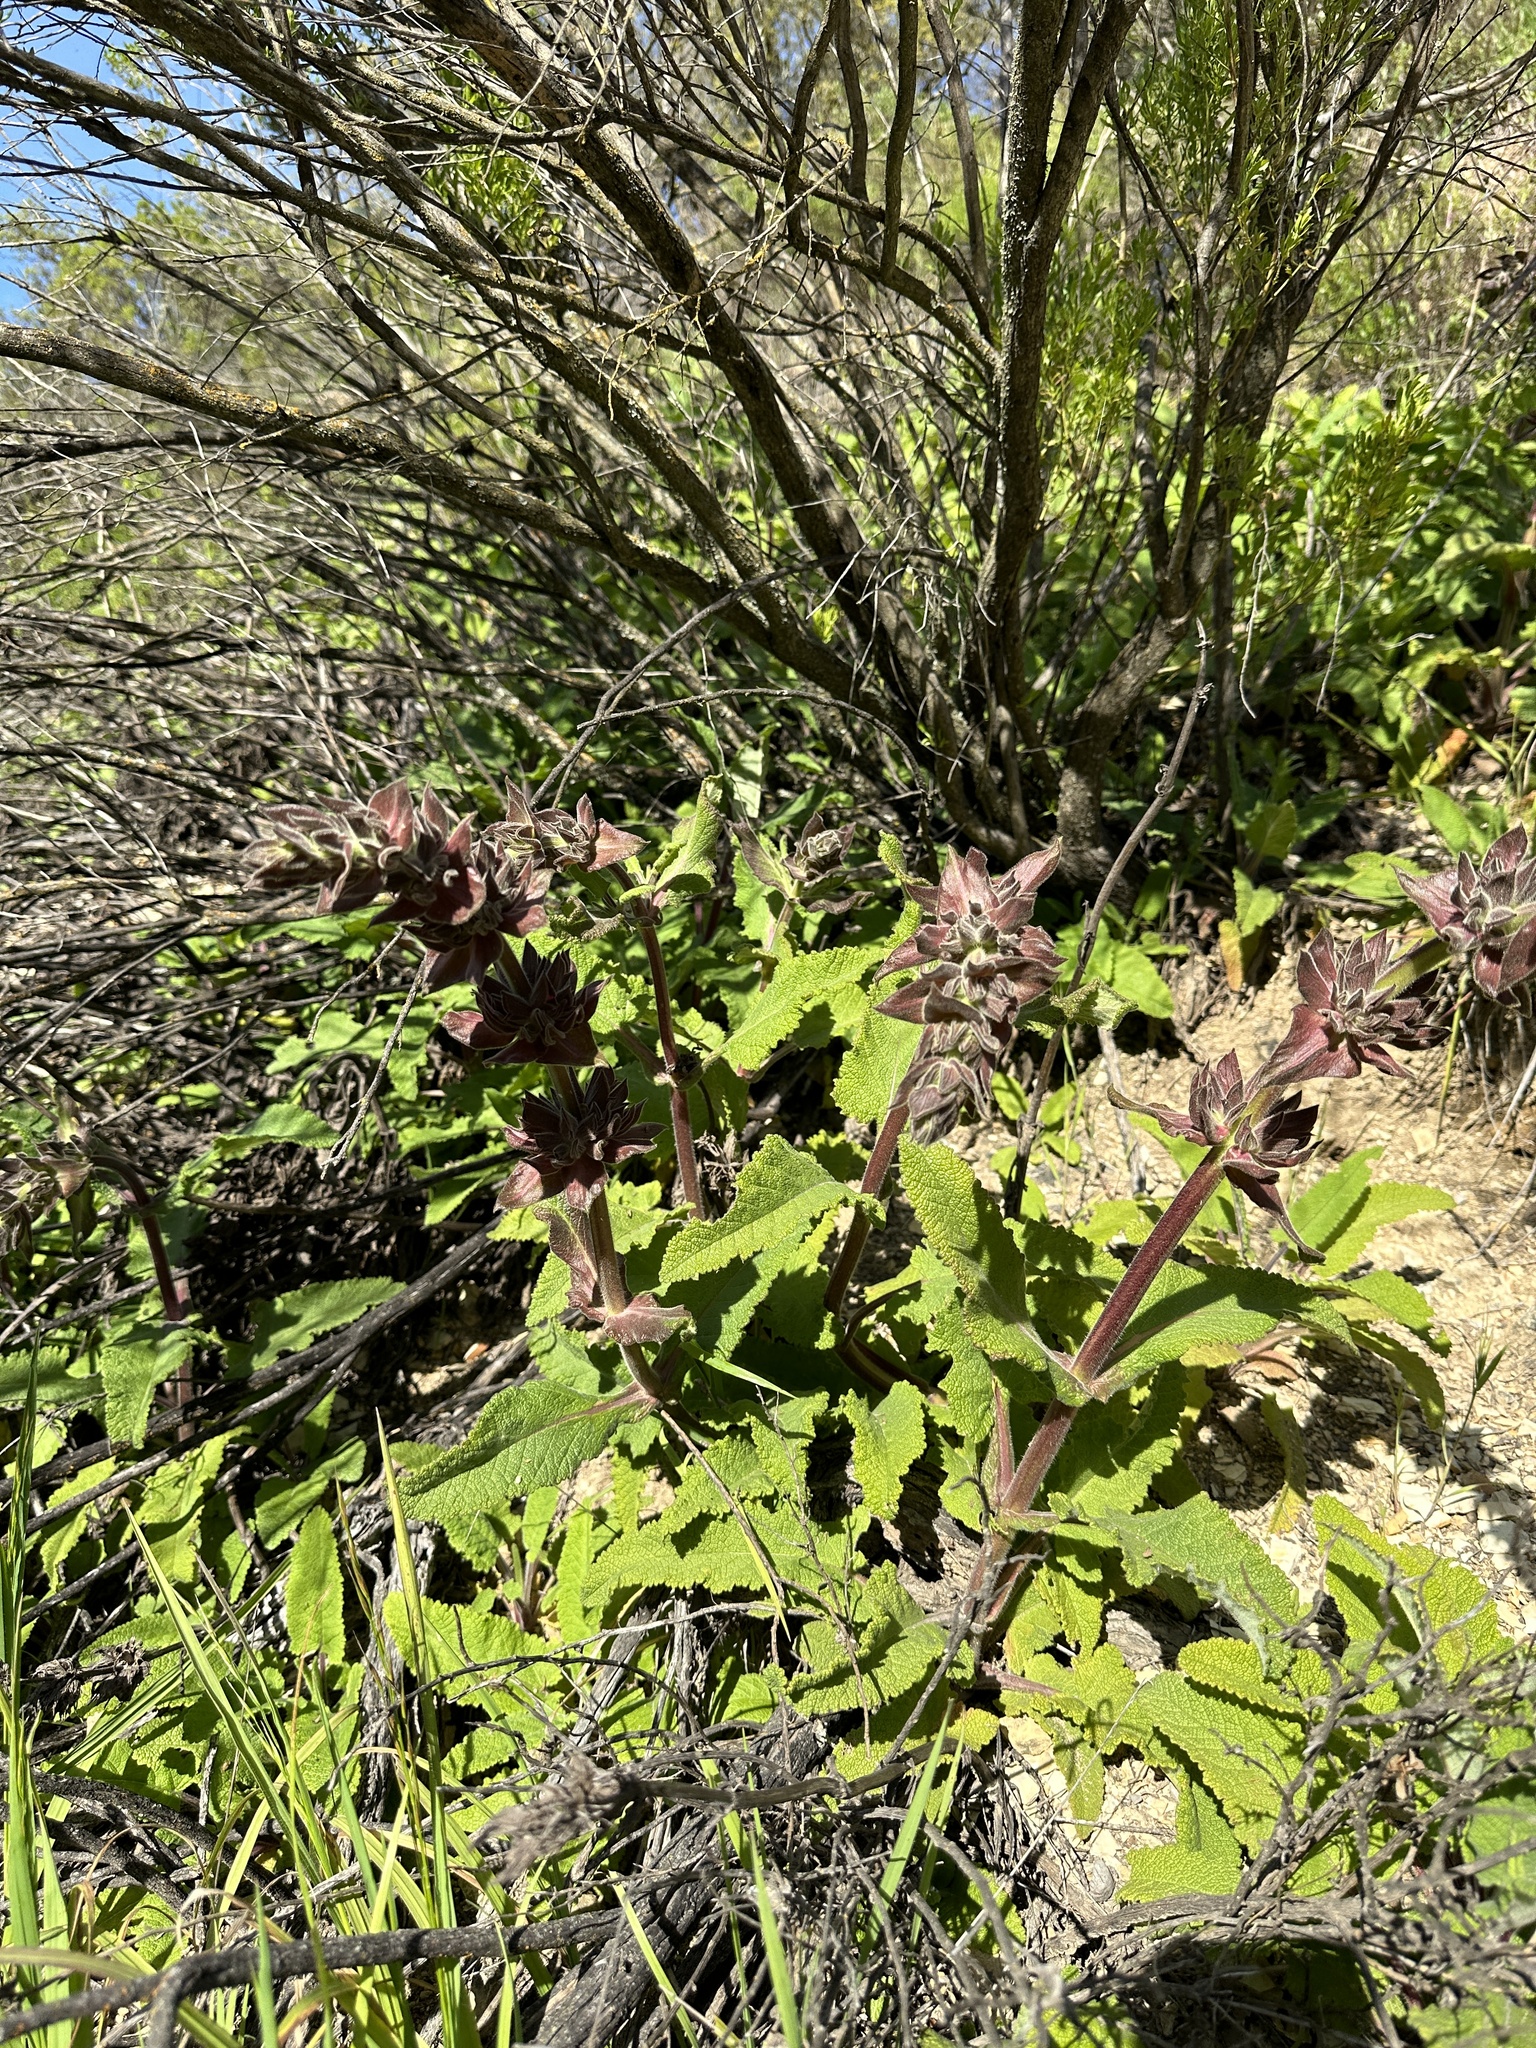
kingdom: Plantae
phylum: Tracheophyta
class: Magnoliopsida
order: Lamiales
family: Lamiaceae
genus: Salvia
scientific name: Salvia spathacea
